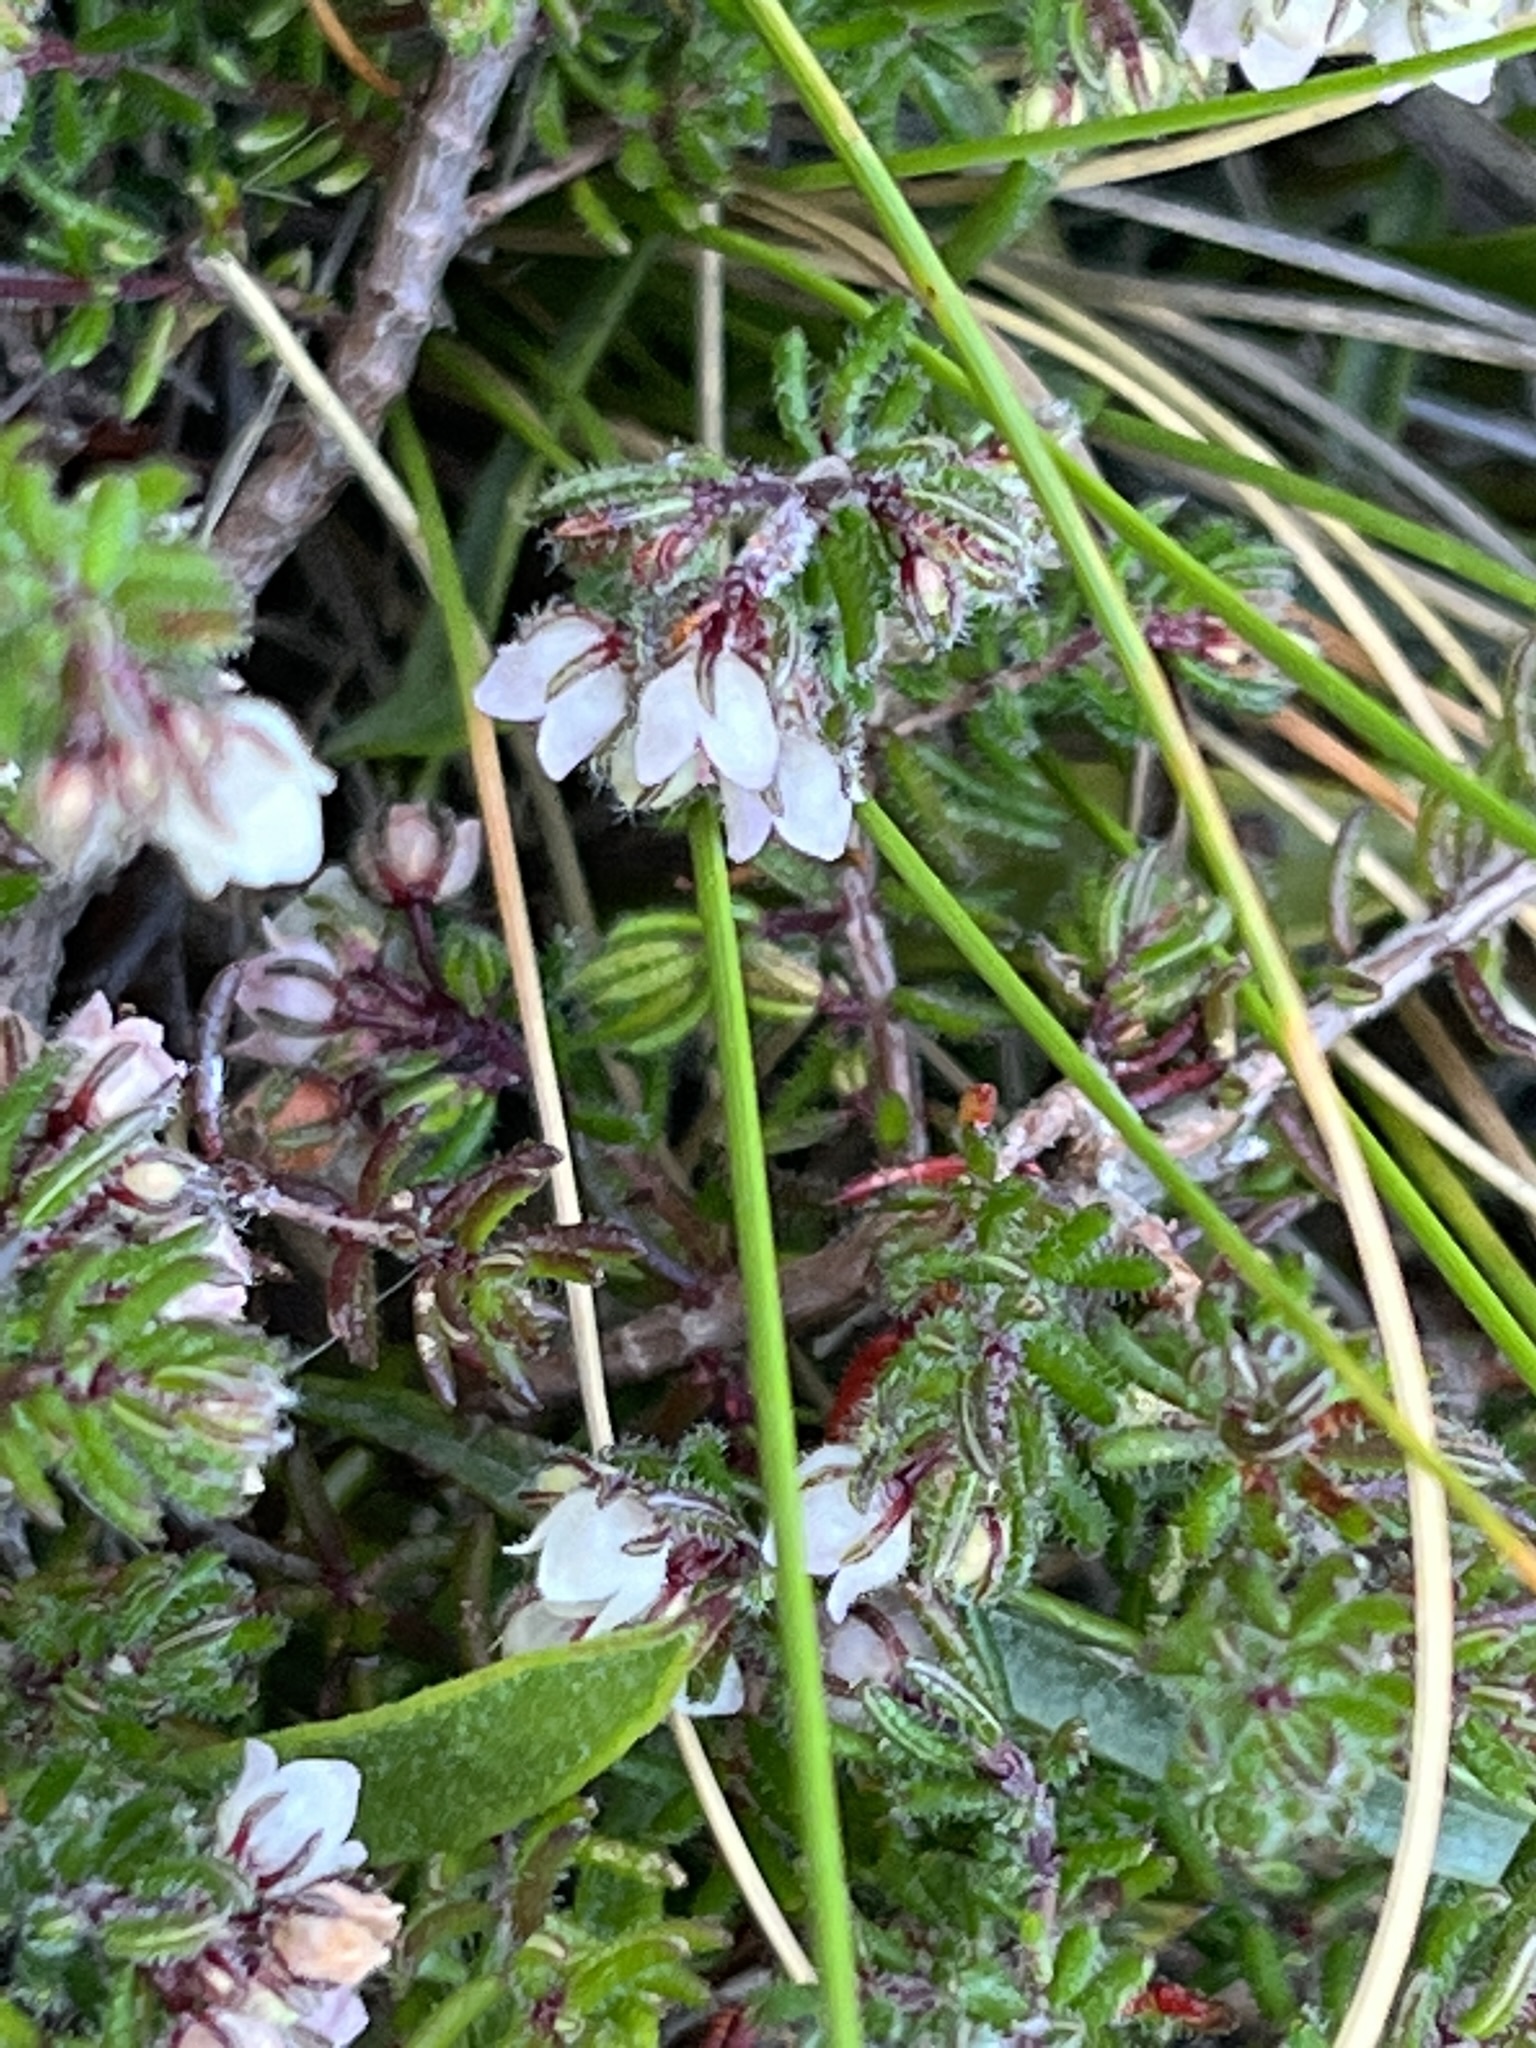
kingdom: Plantae
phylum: Tracheophyta
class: Magnoliopsida
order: Ericales
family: Ericaceae
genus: Erica
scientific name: Erica distorta
